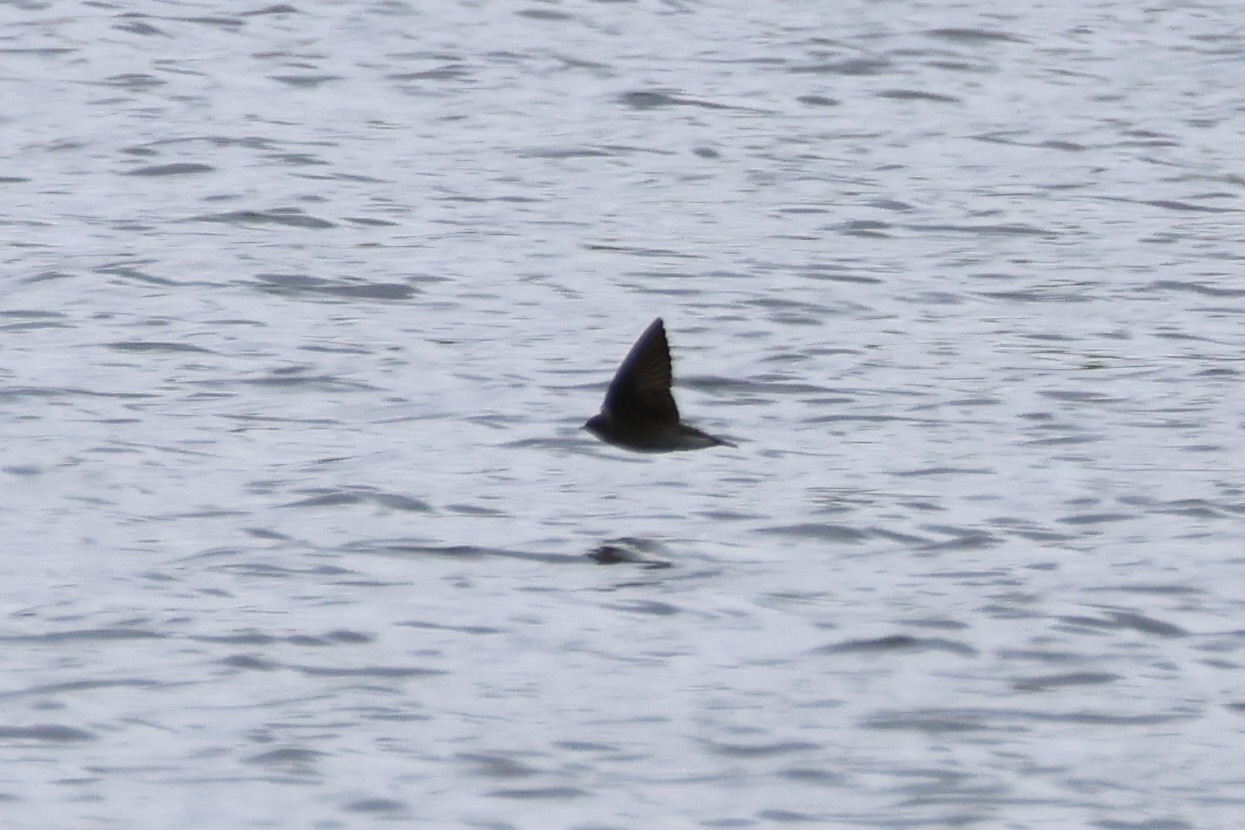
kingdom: Animalia
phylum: Chordata
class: Aves
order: Passeriformes
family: Hirundinidae
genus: Stelgidopteryx
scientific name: Stelgidopteryx serripennis
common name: Northern rough-winged swallow
